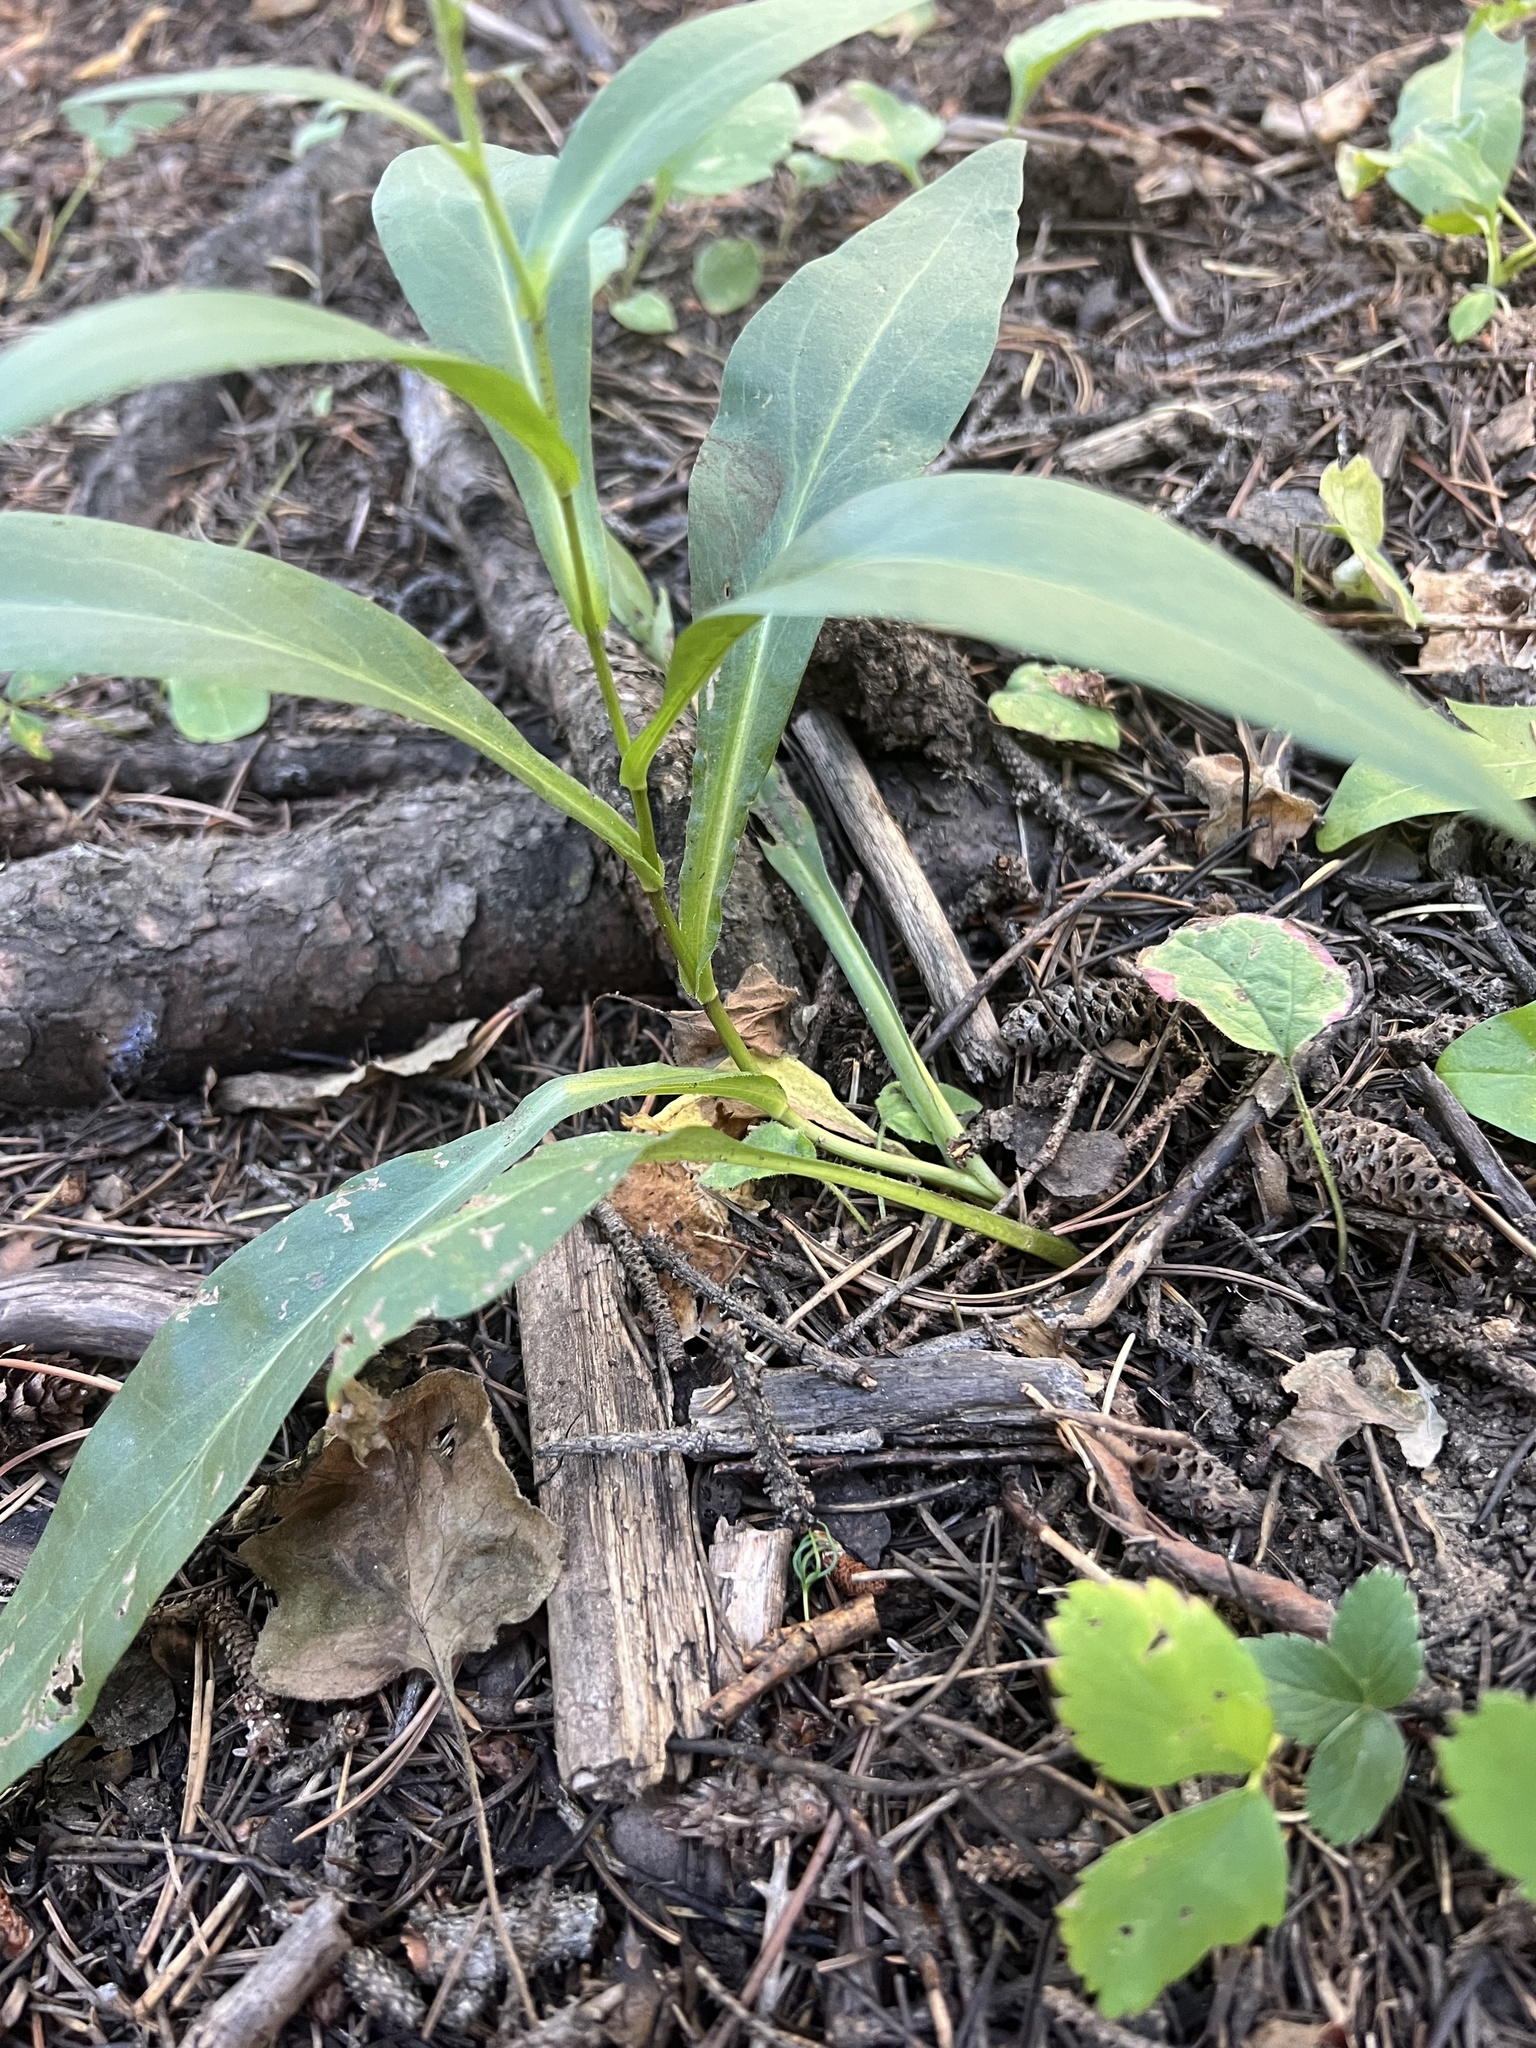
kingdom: Plantae
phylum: Tracheophyta
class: Magnoliopsida
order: Asterales
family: Asteraceae
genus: Symphyotrichum
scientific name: Symphyotrichum foliaceum
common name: Leafy aster
